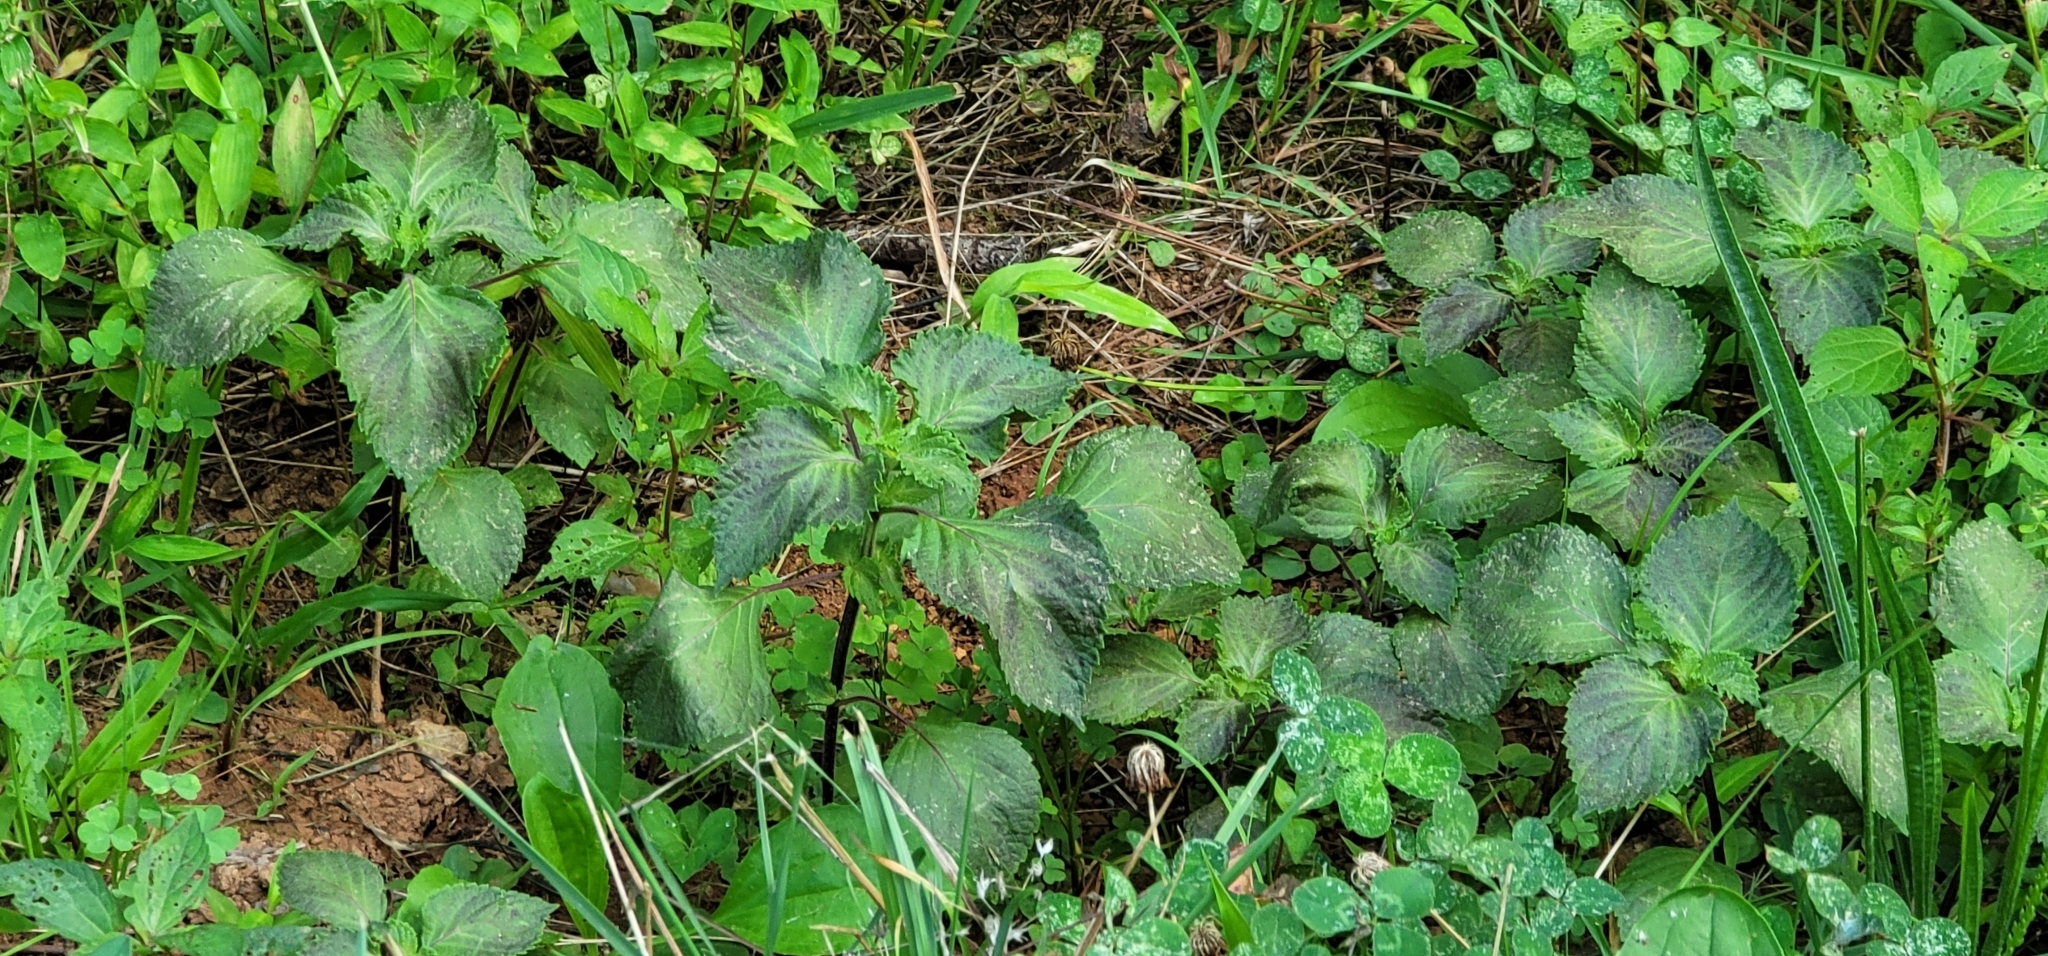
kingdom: Plantae
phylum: Tracheophyta
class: Magnoliopsida
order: Lamiales
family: Lamiaceae
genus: Perilla
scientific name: Perilla frutescens
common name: Perilla
